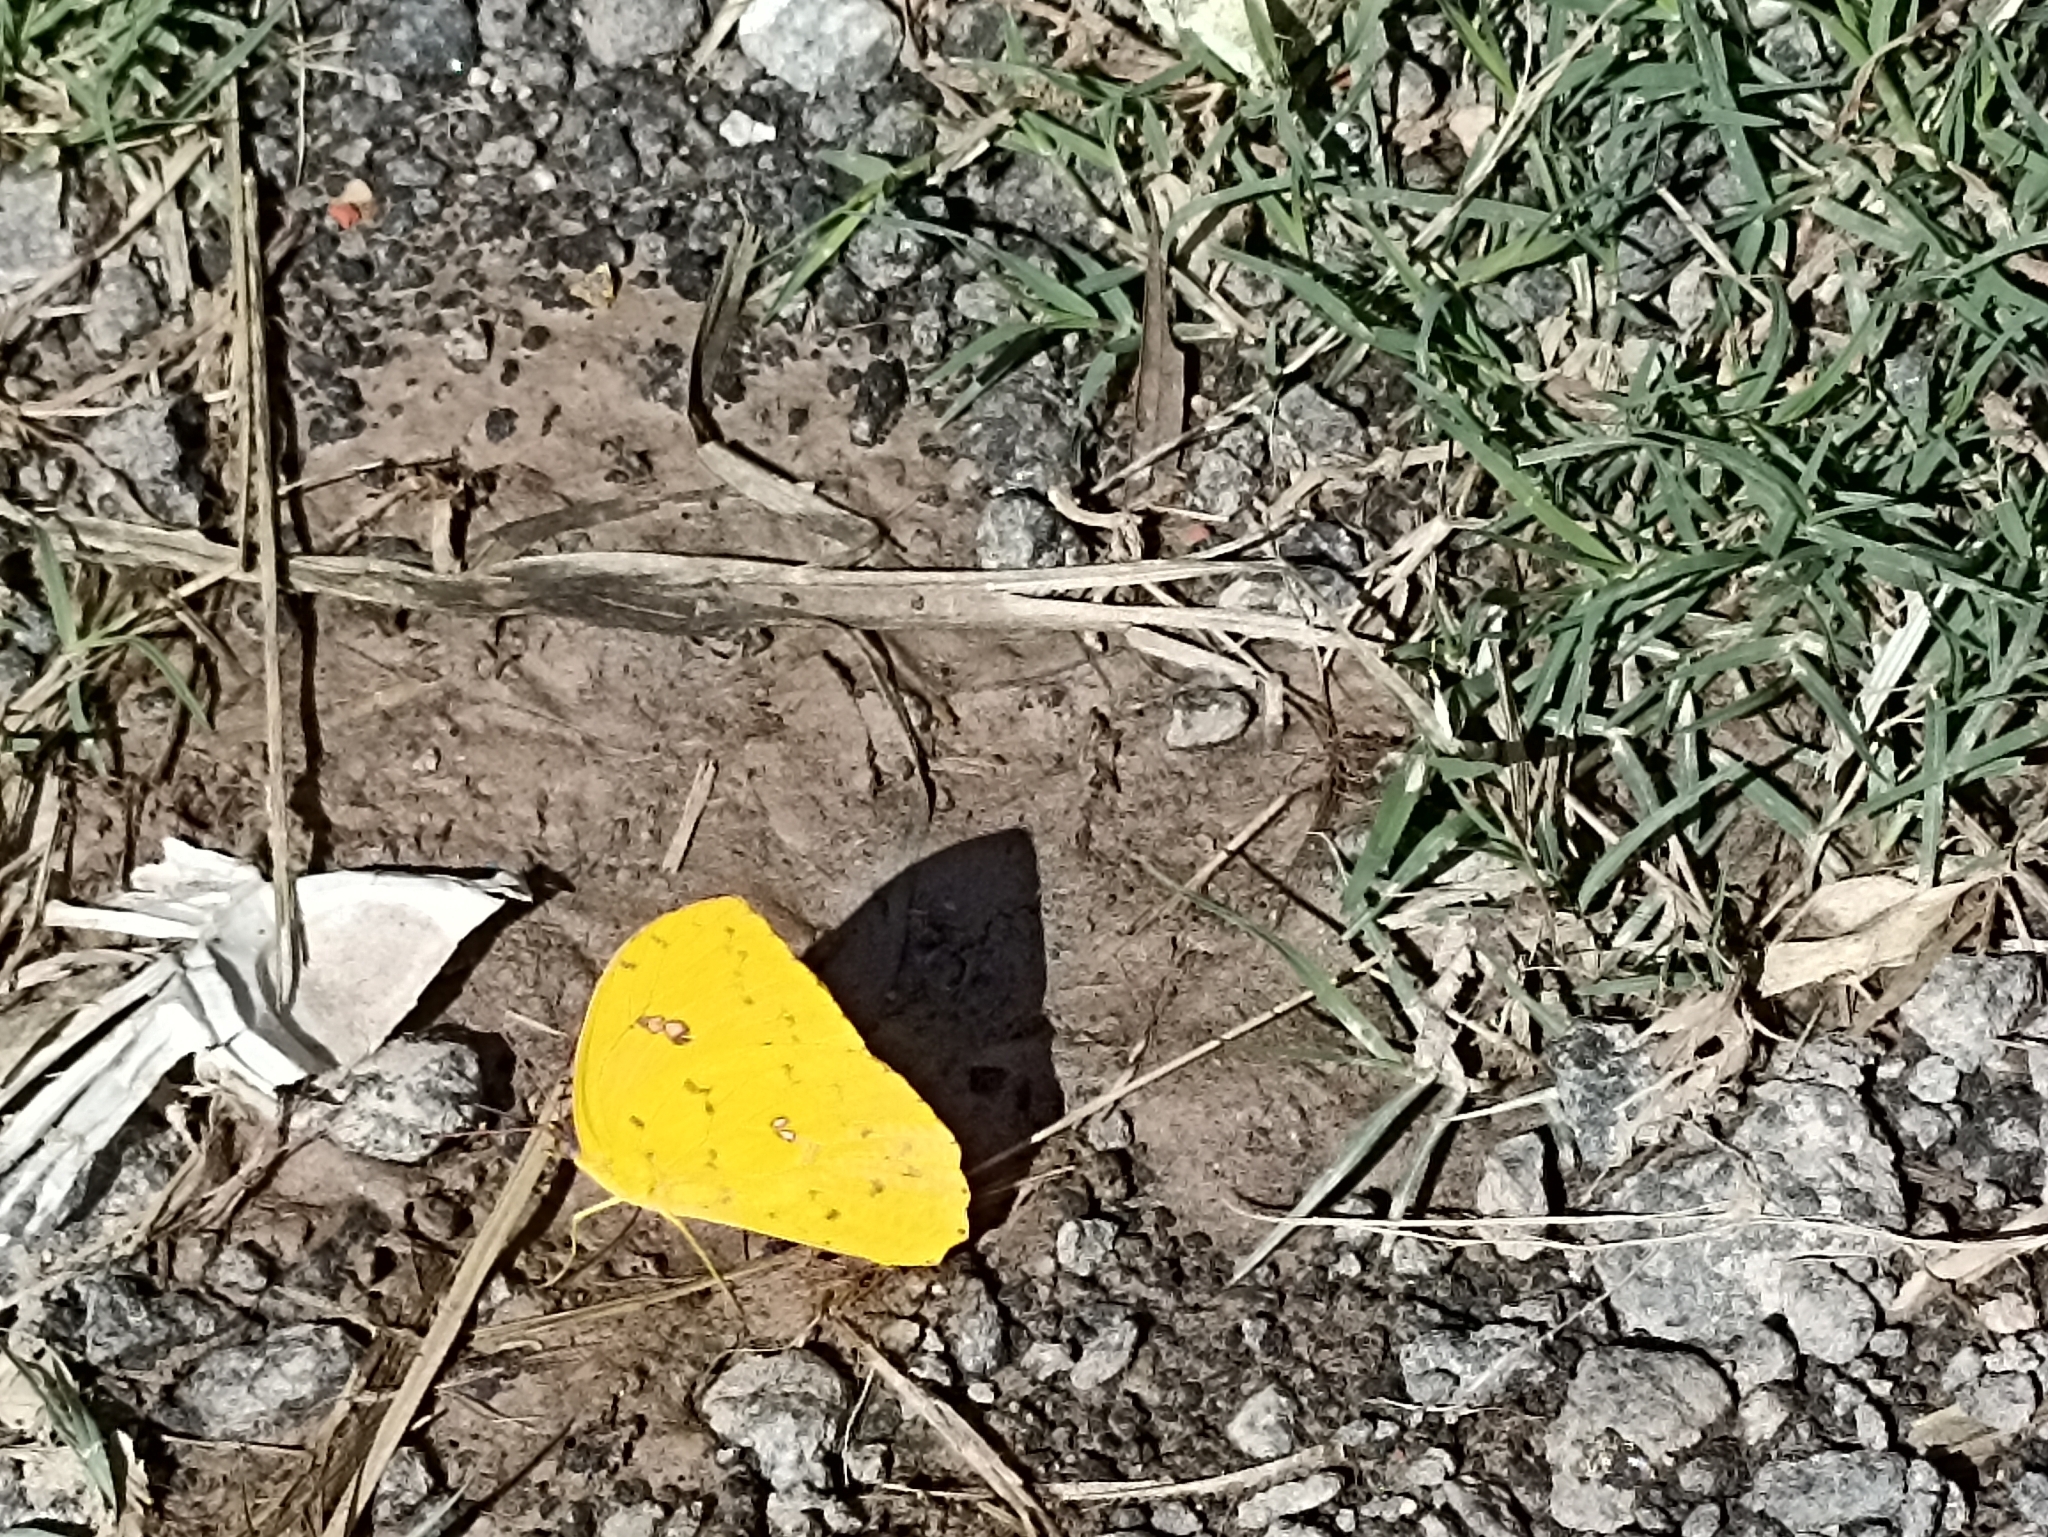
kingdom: Animalia
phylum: Arthropoda
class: Insecta
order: Lepidoptera
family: Pieridae
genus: Phoebis
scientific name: Phoebis philea
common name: Orange-barred giant sulphur
